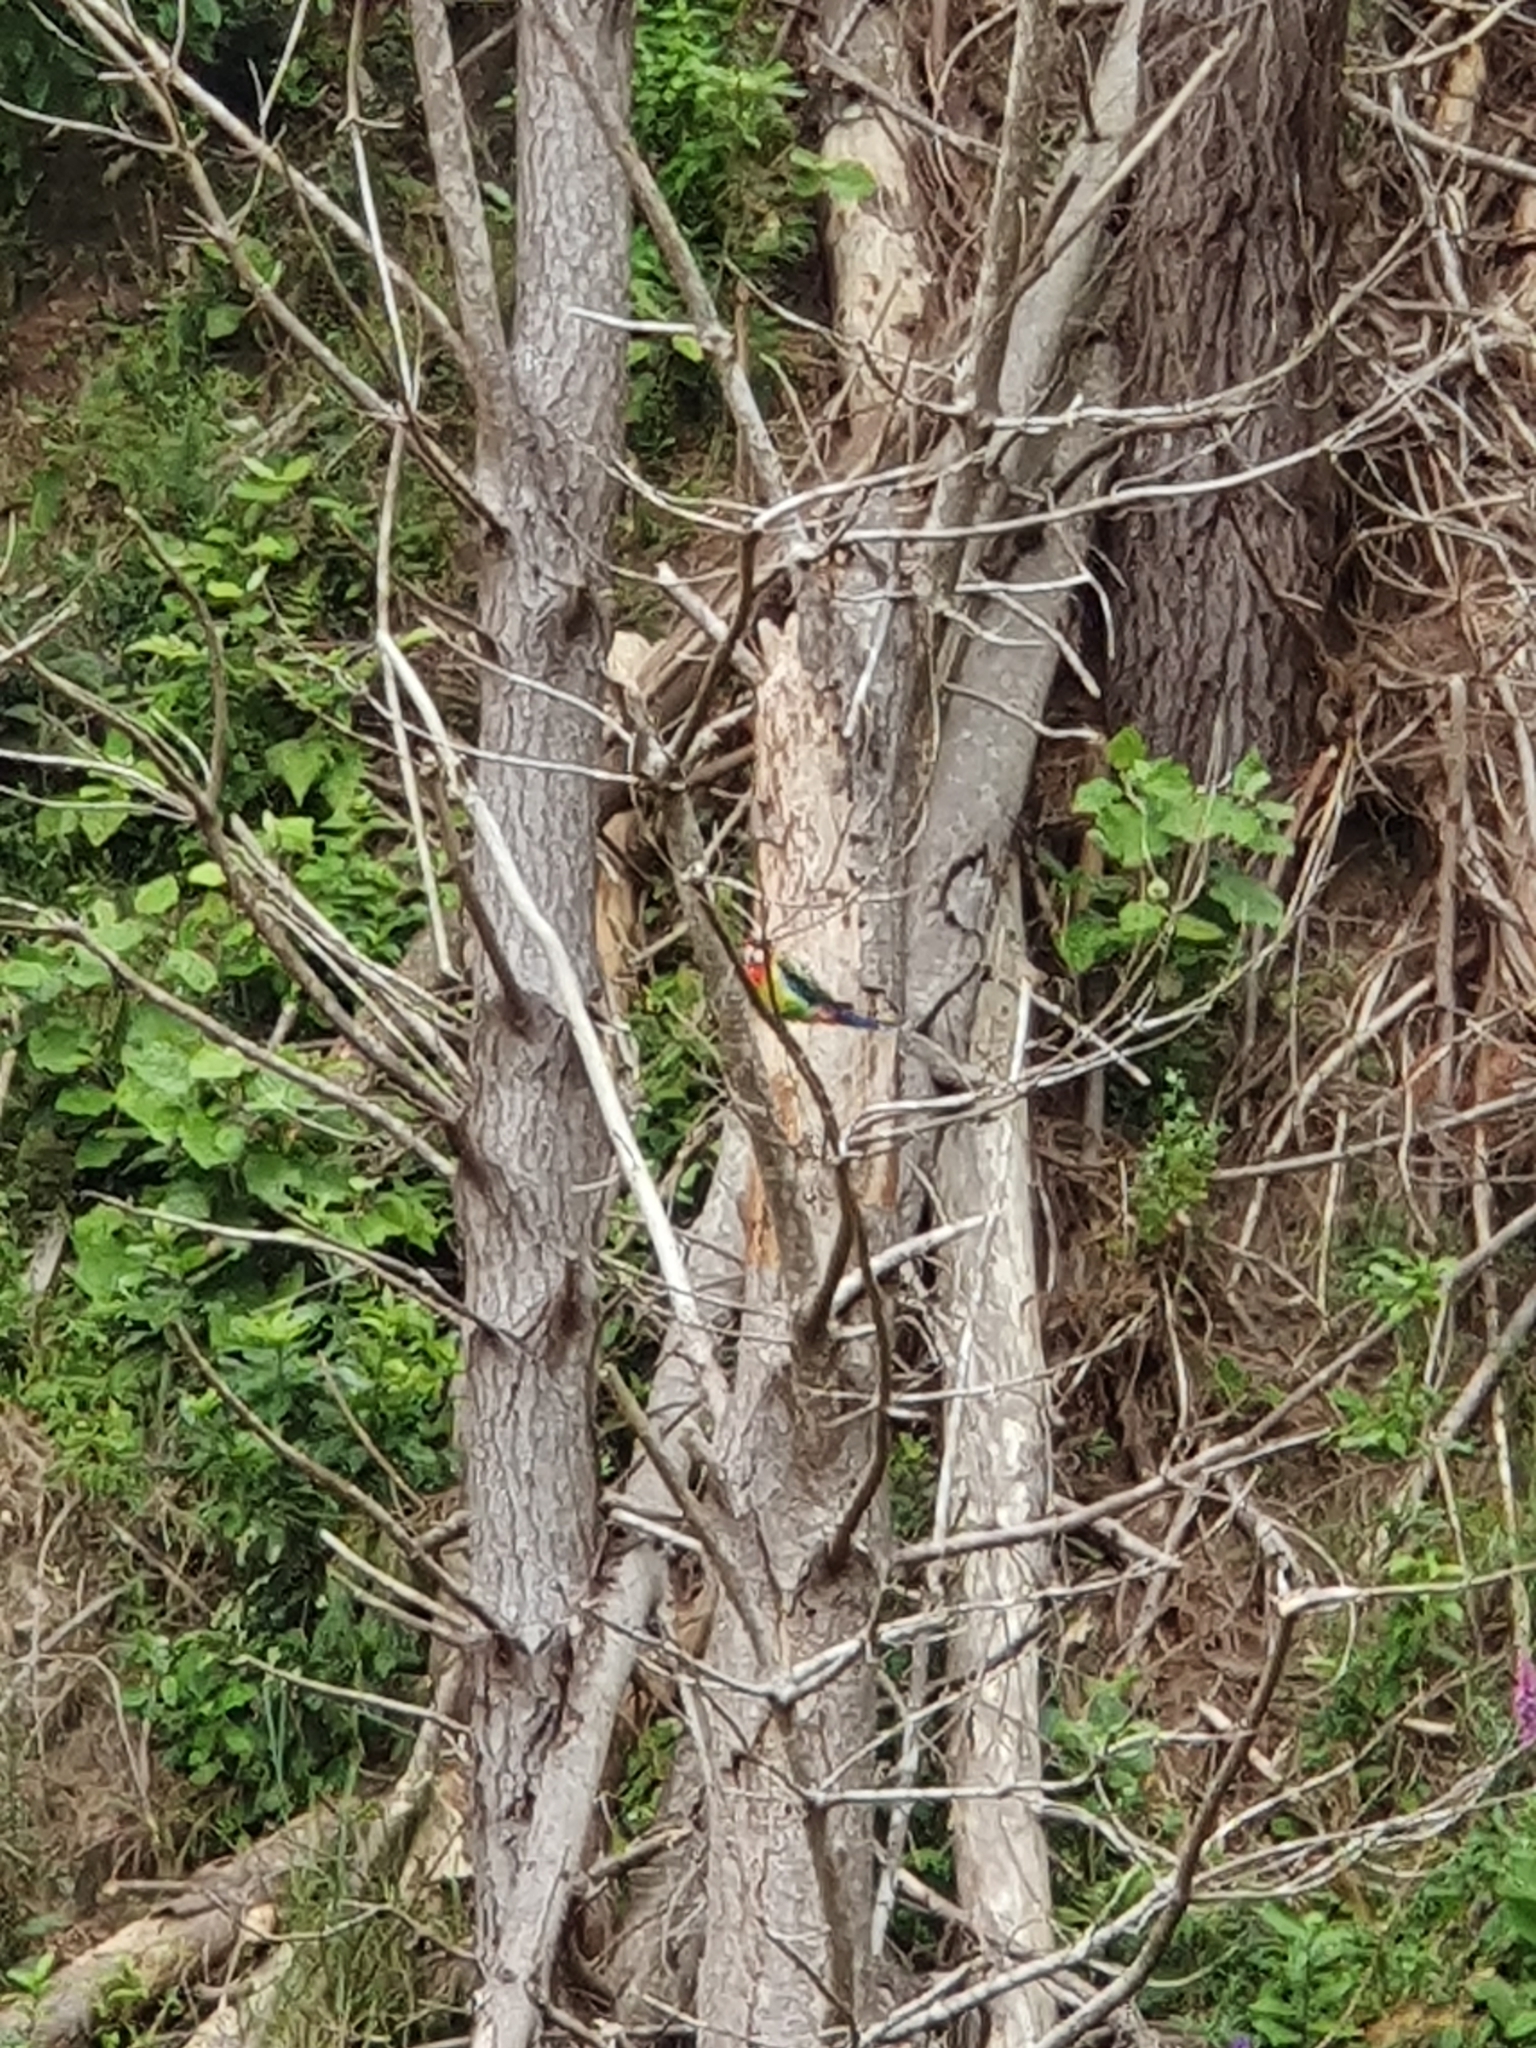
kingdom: Animalia
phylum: Chordata
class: Aves
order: Psittaciformes
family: Psittacidae
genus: Platycercus
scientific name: Platycercus eximius
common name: Eastern rosella
